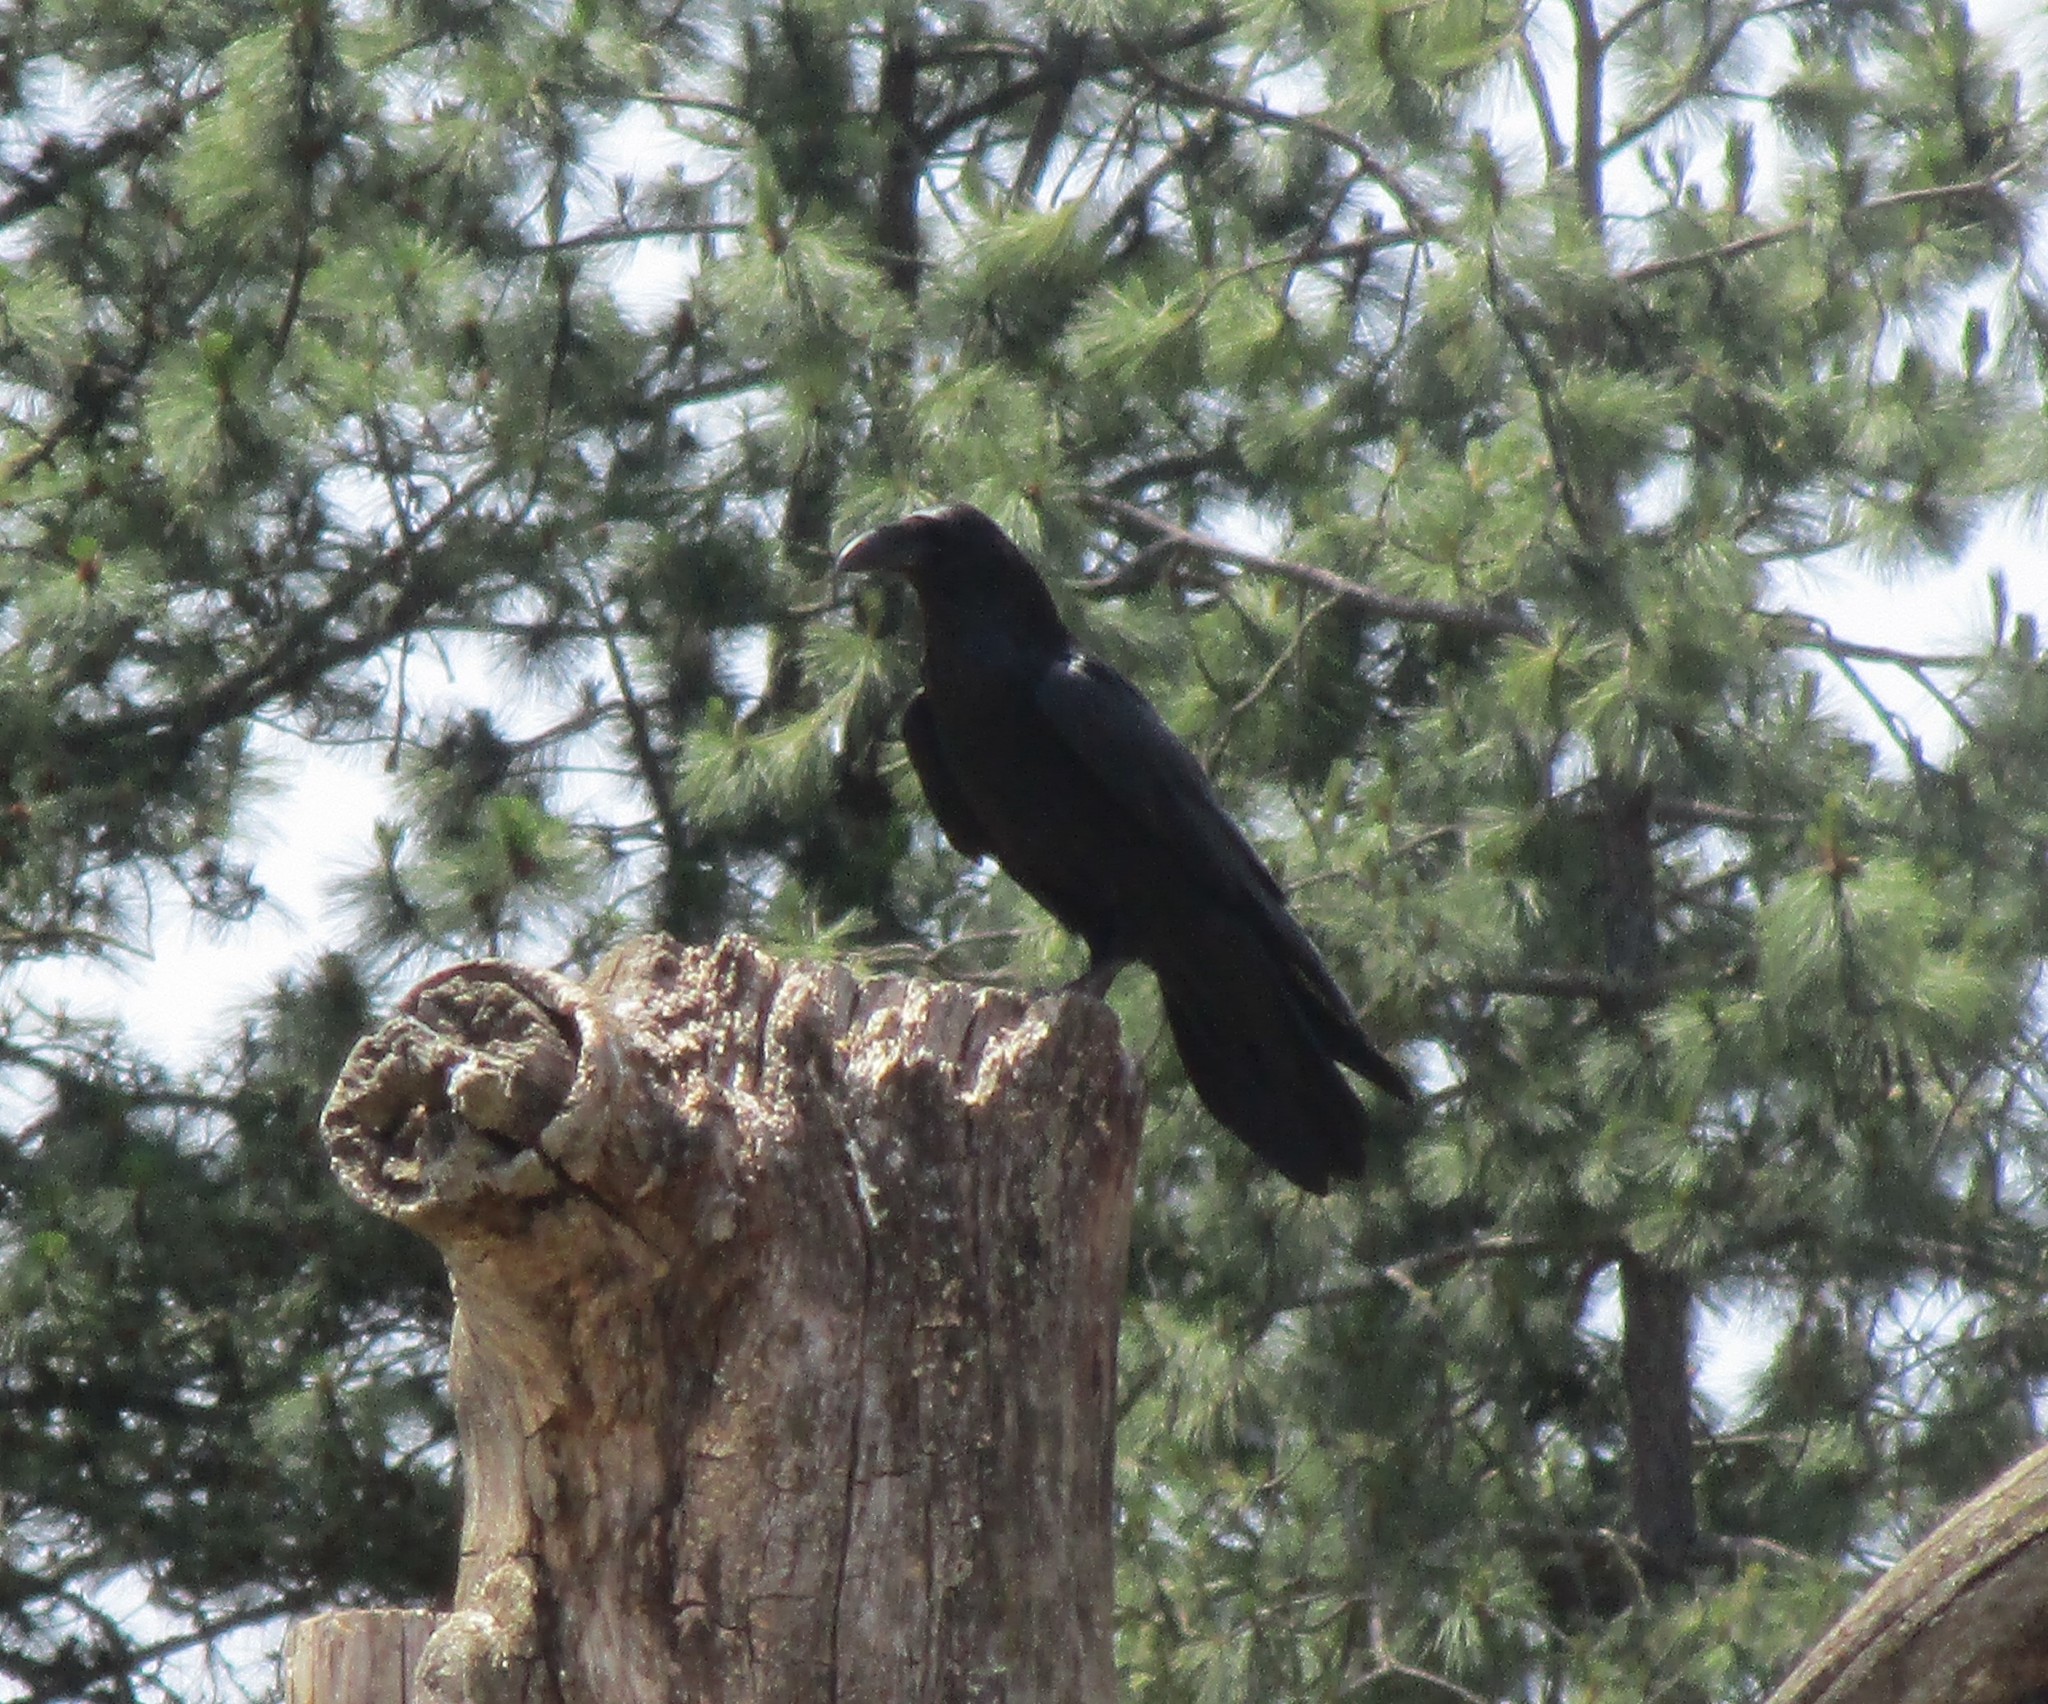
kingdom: Animalia
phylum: Chordata
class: Aves
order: Passeriformes
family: Corvidae
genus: Corvus
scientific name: Corvus corax
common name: Common raven
